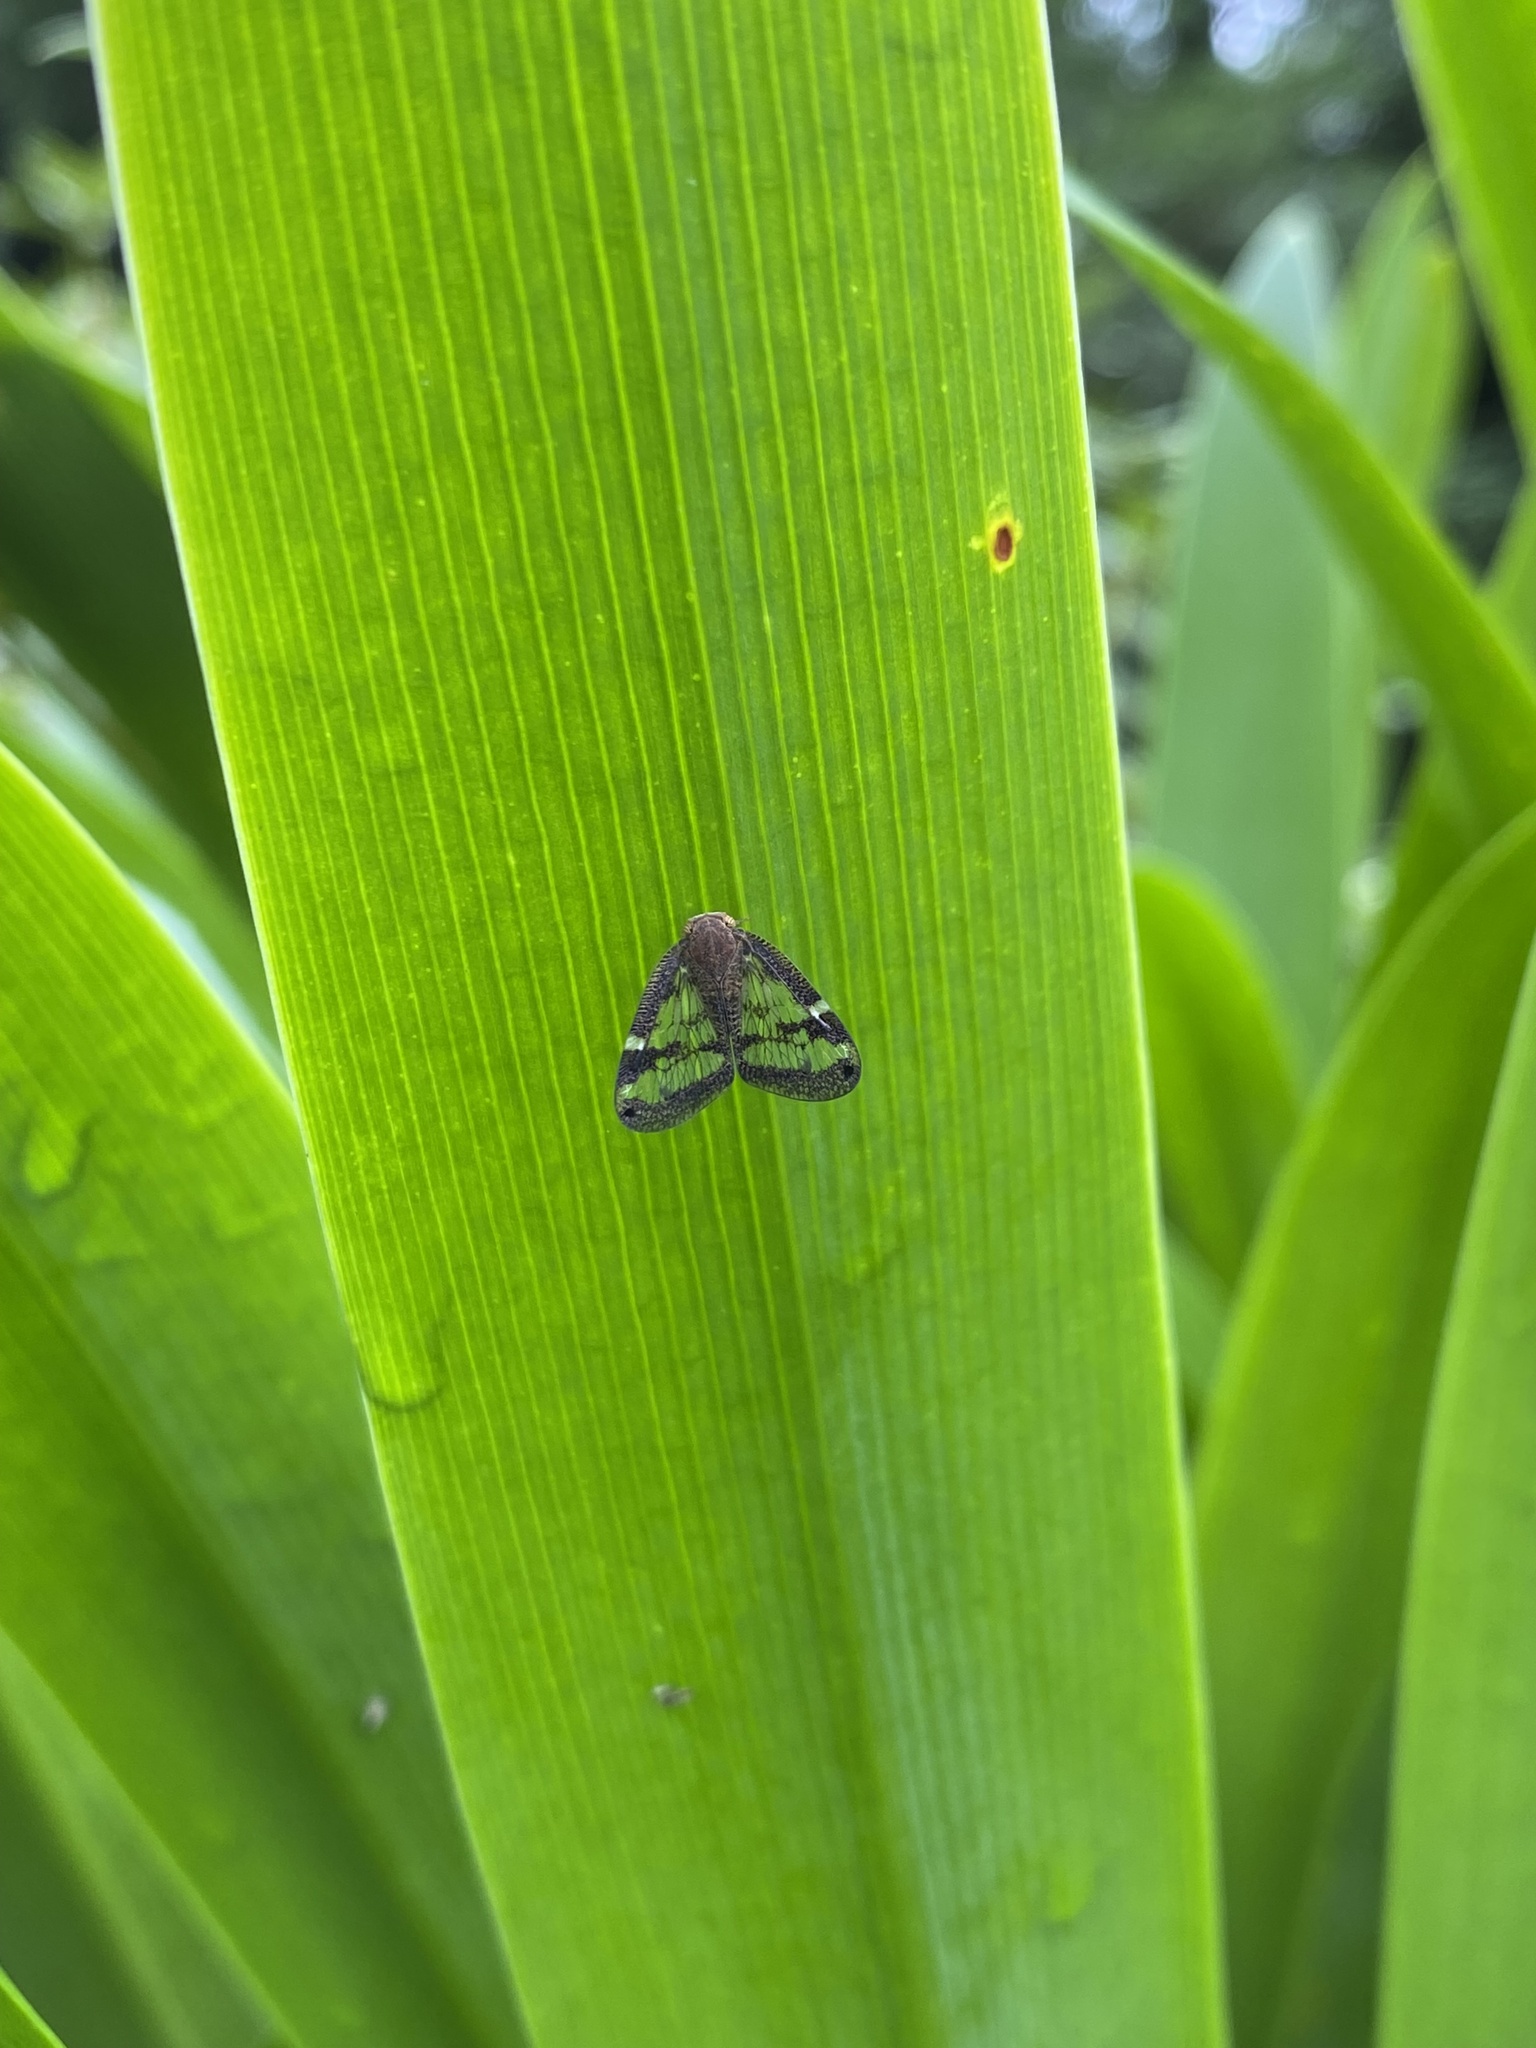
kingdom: Animalia
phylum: Arthropoda
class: Insecta
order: Hemiptera
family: Ricaniidae
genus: Scolypopa
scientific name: Scolypopa australis
